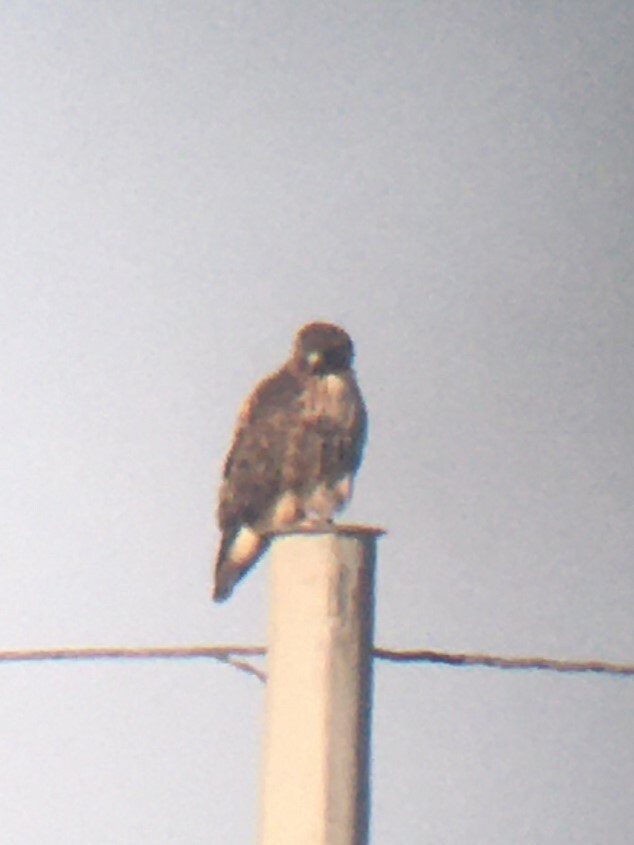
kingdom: Animalia
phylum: Chordata
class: Aves
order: Accipitriformes
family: Accipitridae
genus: Buteo
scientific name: Buteo jamaicensis
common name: Red-tailed hawk
